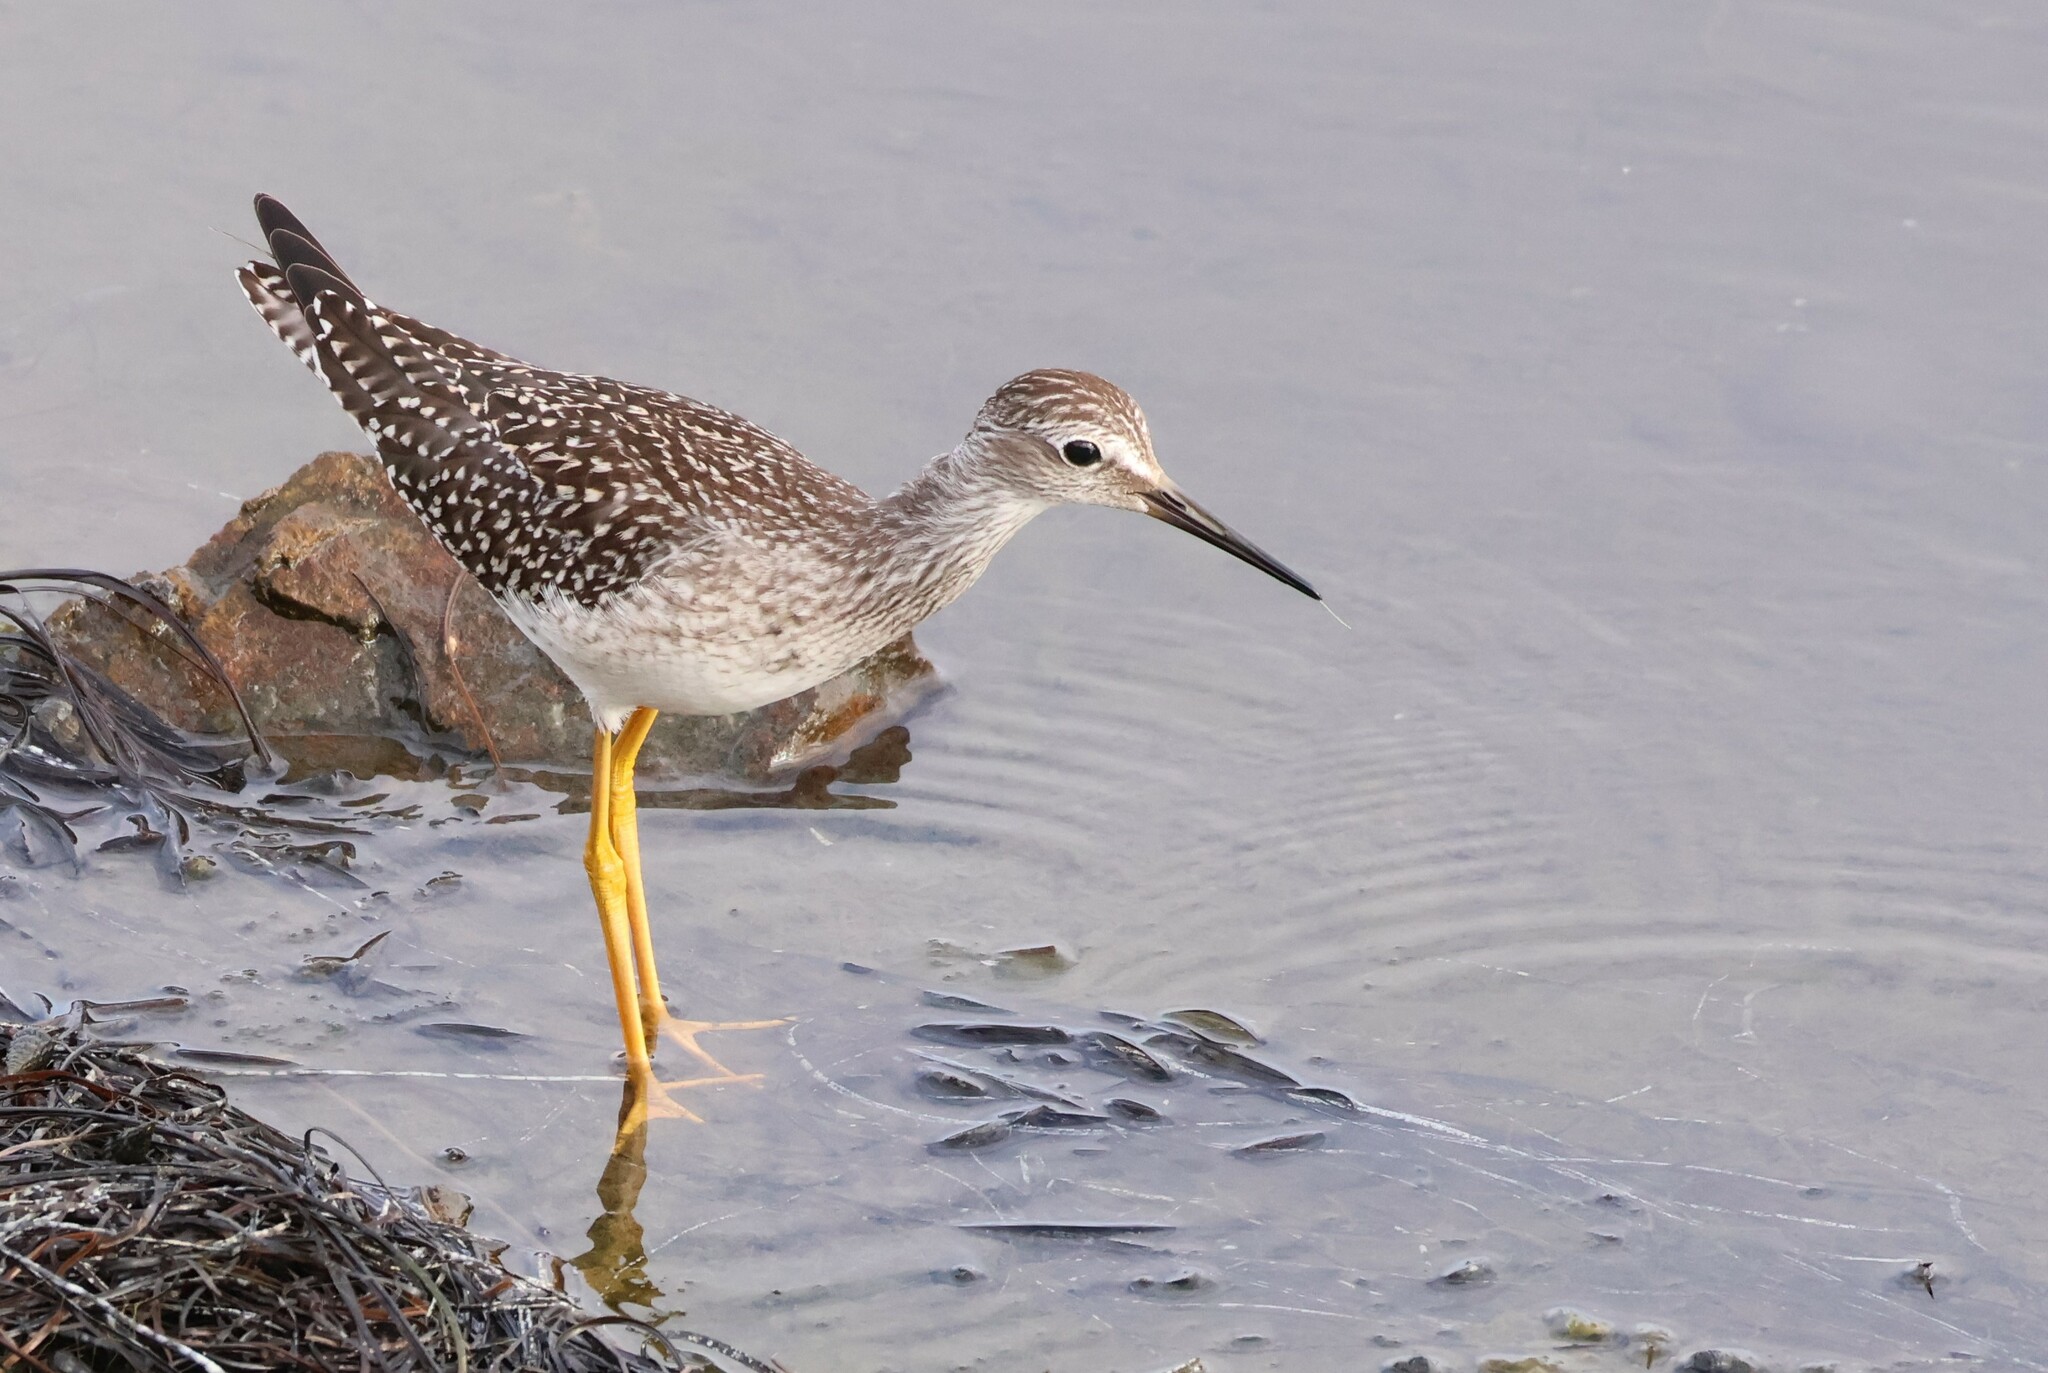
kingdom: Animalia
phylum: Chordata
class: Aves
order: Charadriiformes
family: Scolopacidae
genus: Tringa
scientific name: Tringa flavipes
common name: Lesser yellowlegs
